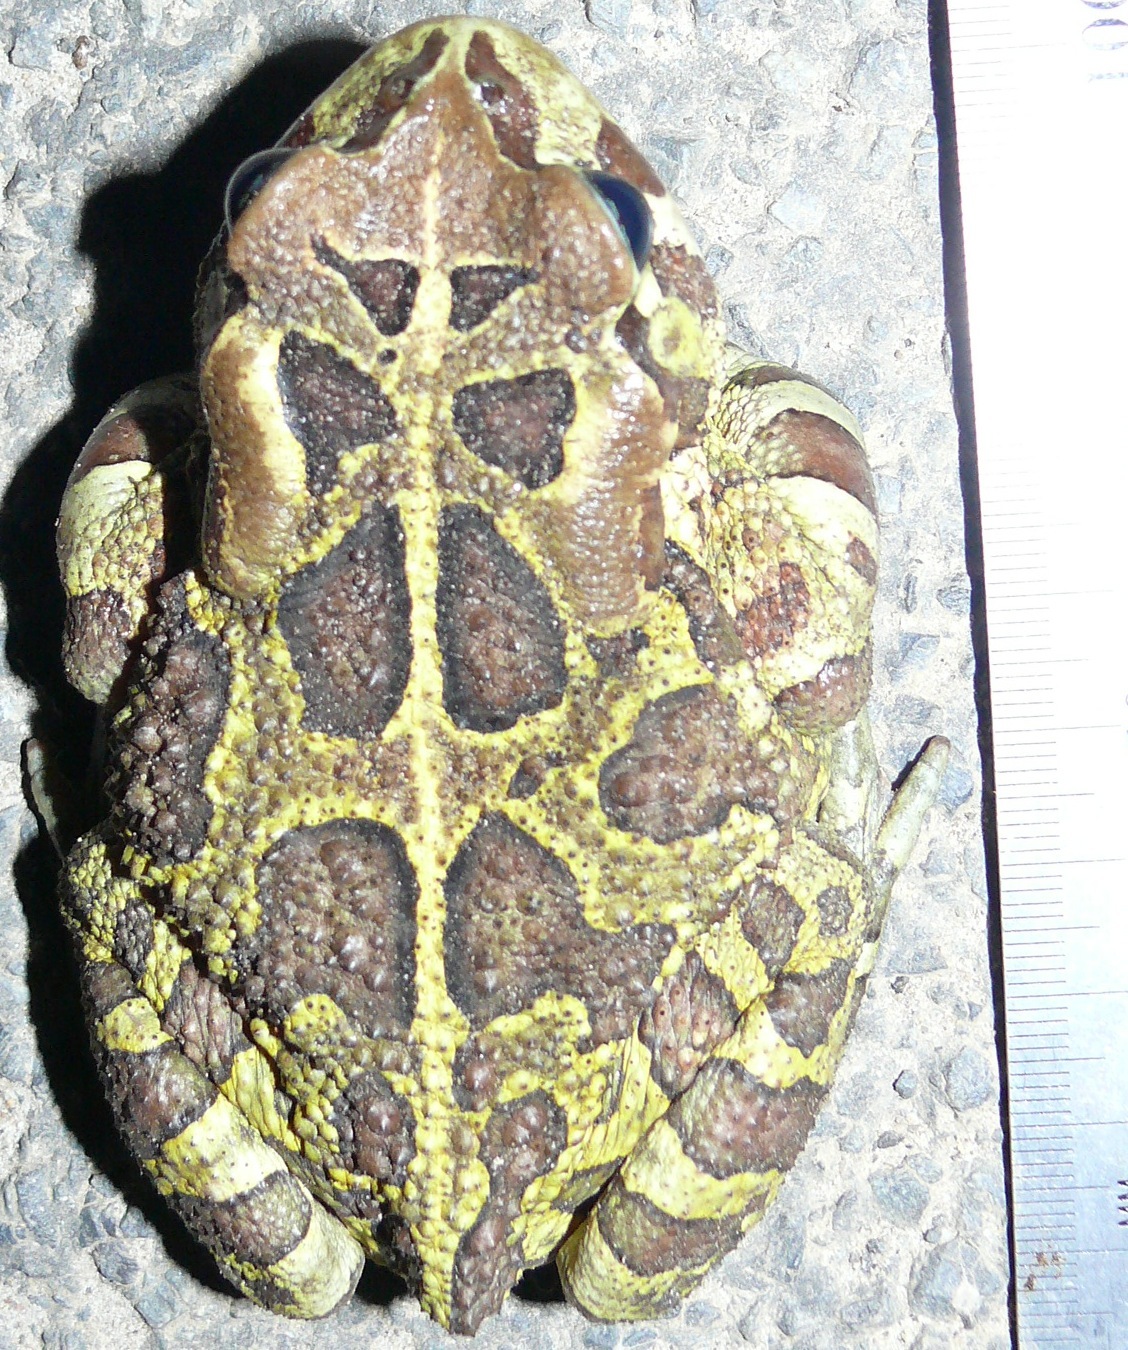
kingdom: Animalia
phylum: Chordata
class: Amphibia
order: Anura
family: Bufonidae
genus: Sclerophrys
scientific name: Sclerophrys pantherina
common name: Panther toad
